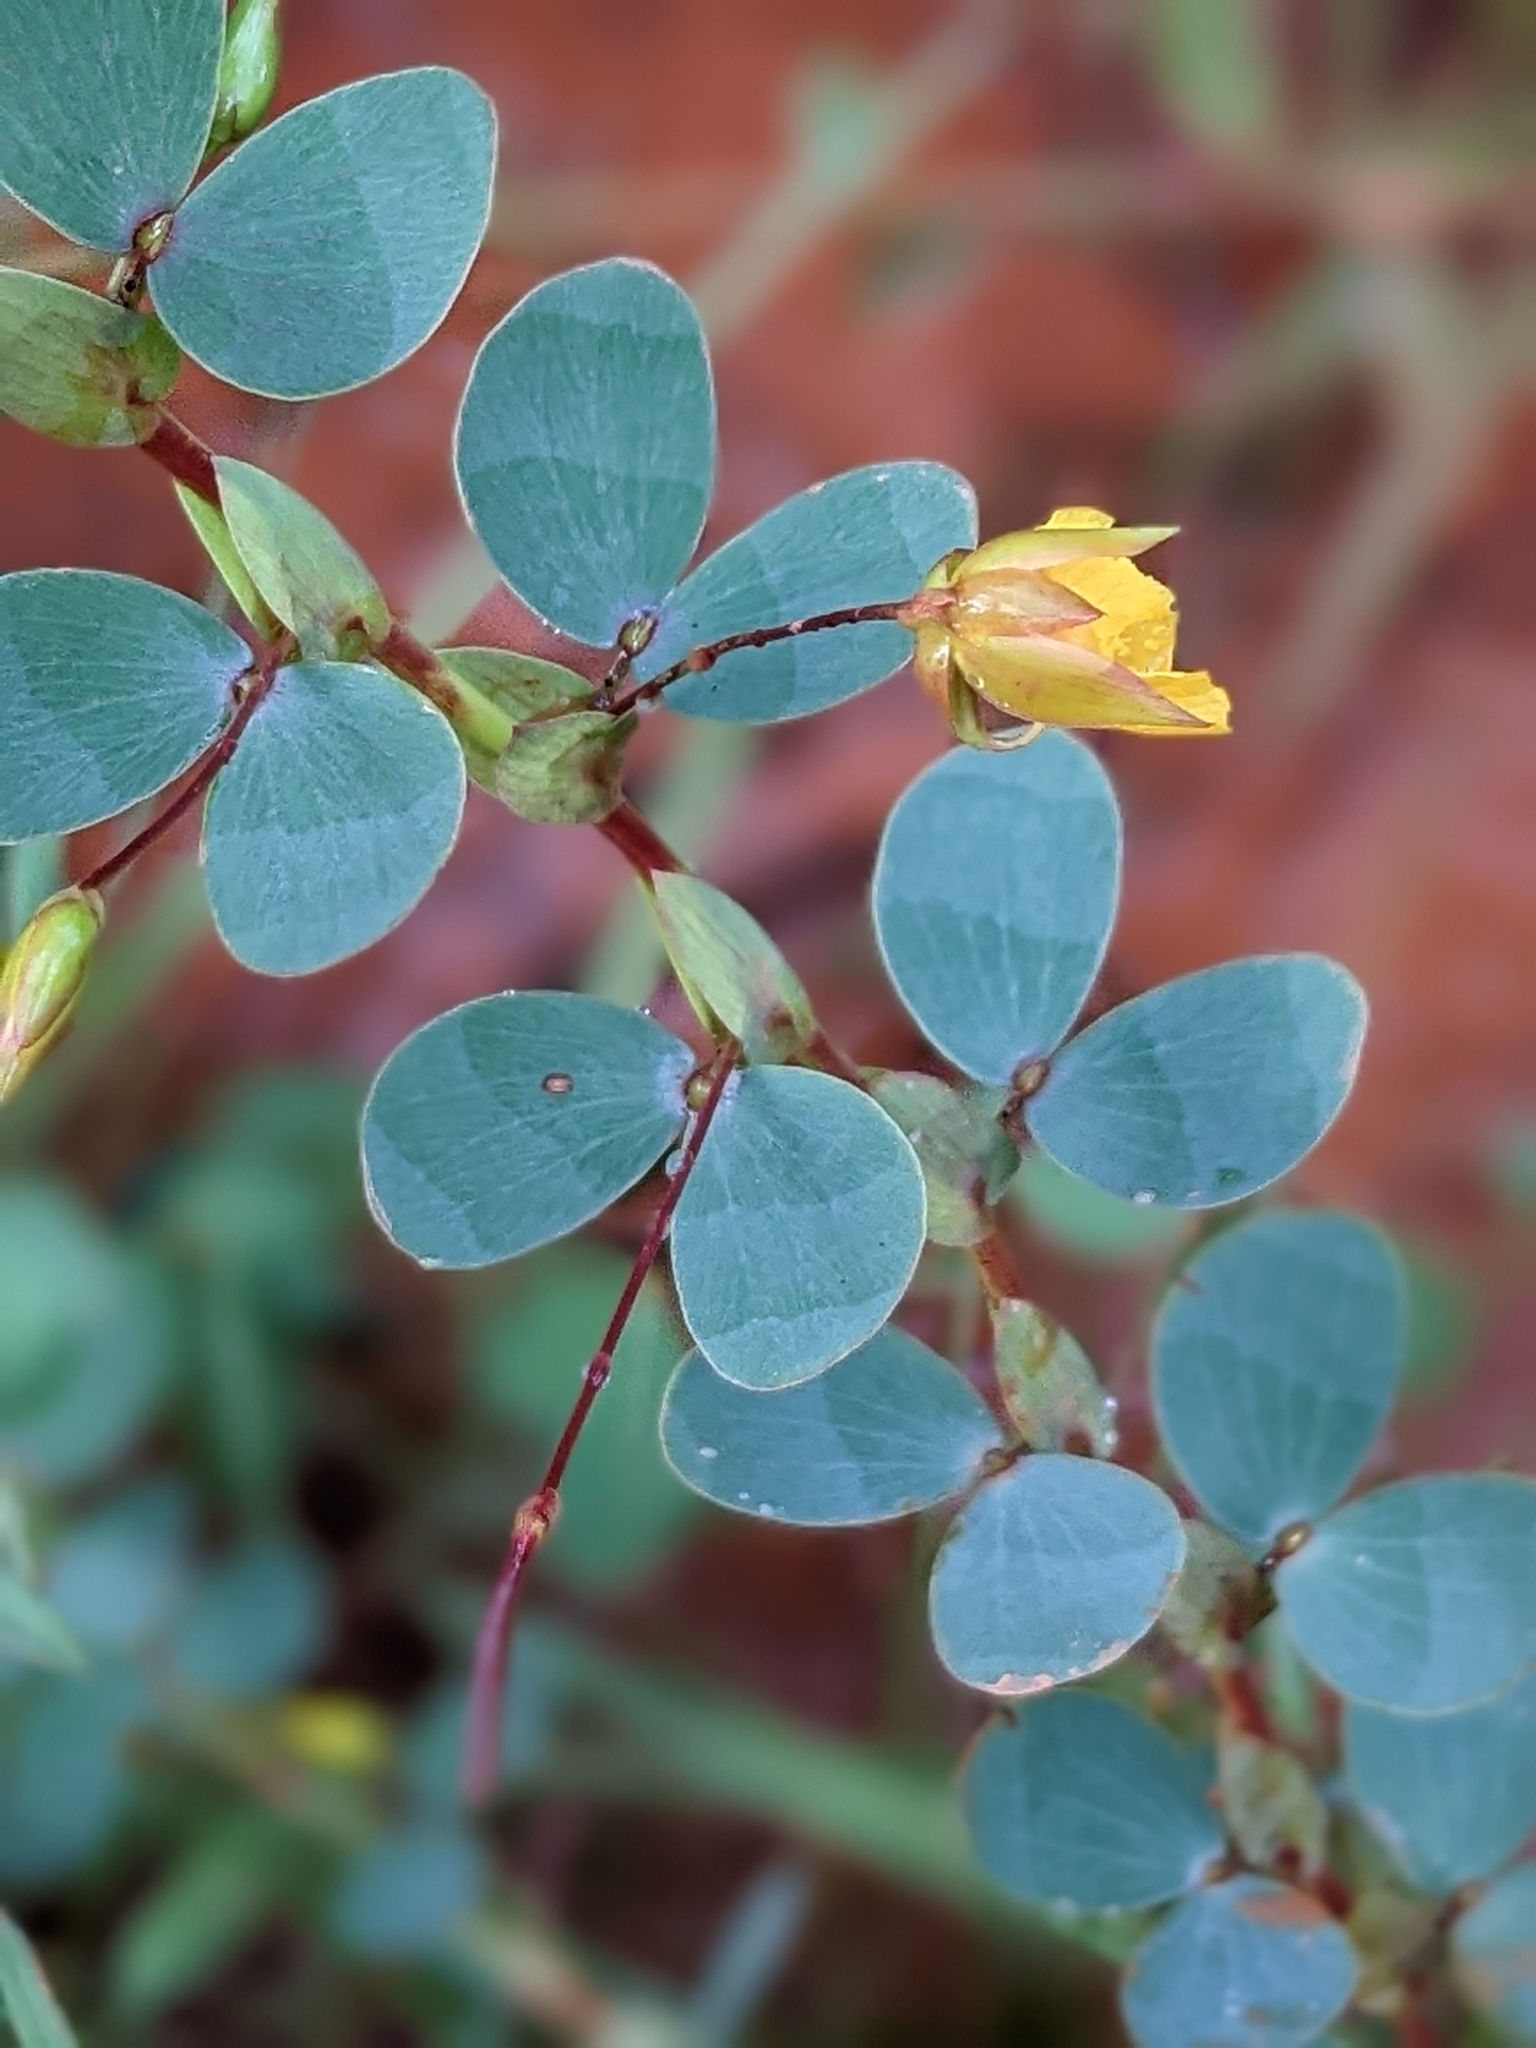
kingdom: Plantae
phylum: Tracheophyta
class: Magnoliopsida
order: Fabales
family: Fabaceae
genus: Chamaecrista
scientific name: Chamaecrista diphylla
